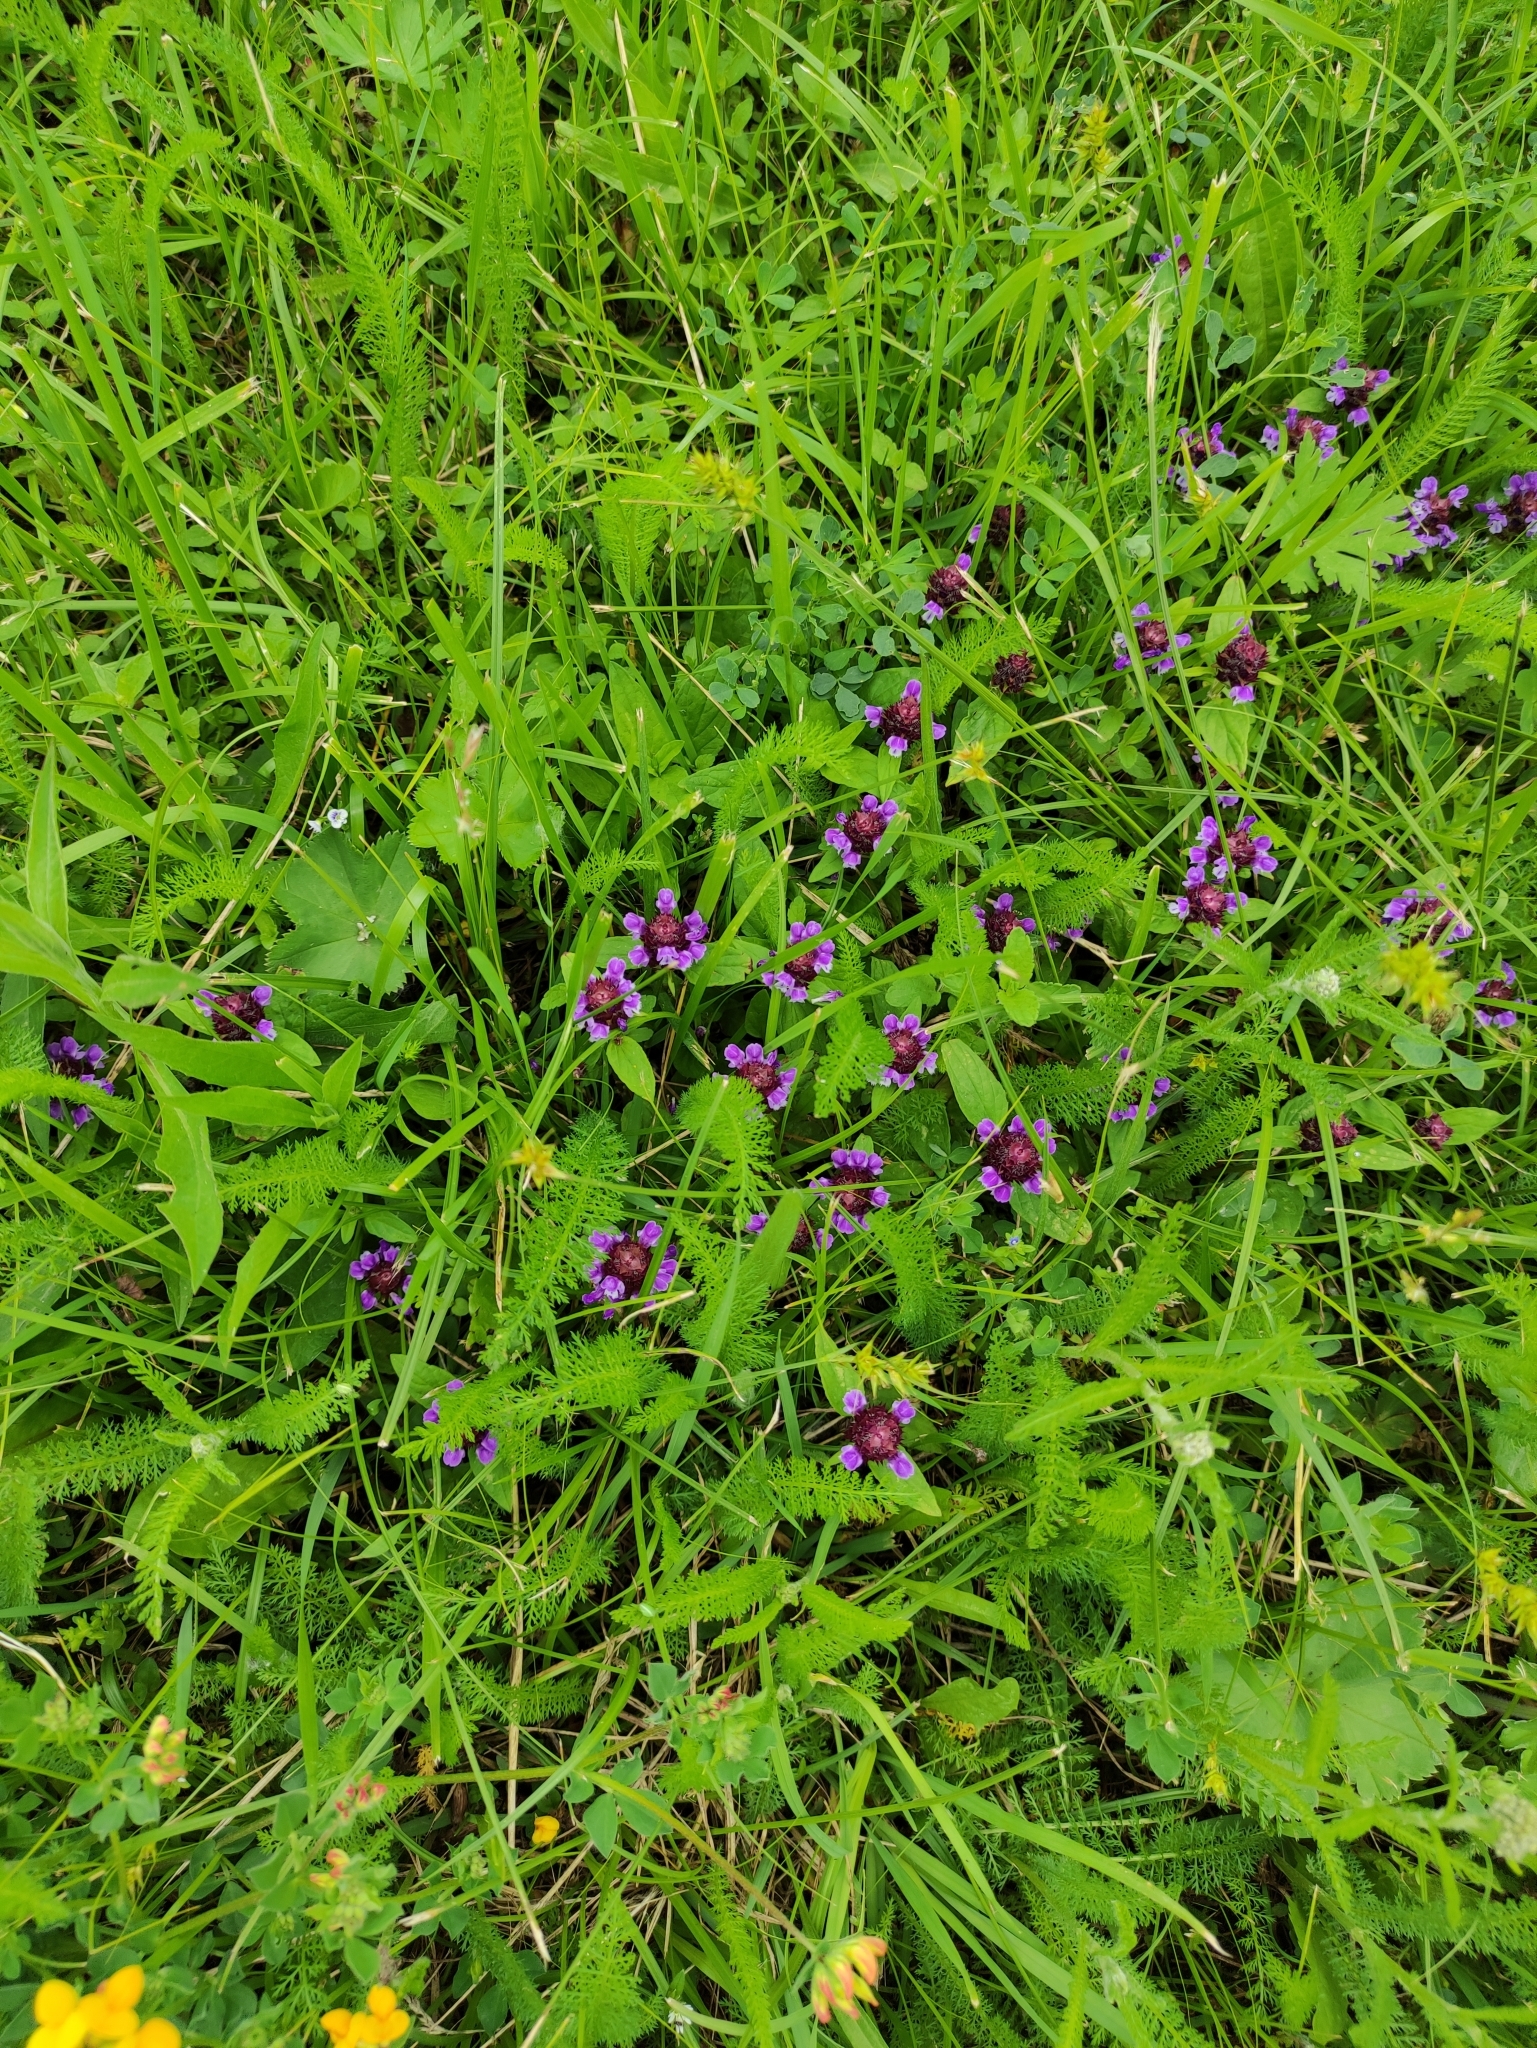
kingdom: Plantae
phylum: Tracheophyta
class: Magnoliopsida
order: Lamiales
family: Lamiaceae
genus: Prunella
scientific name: Prunella vulgaris
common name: Heal-all
